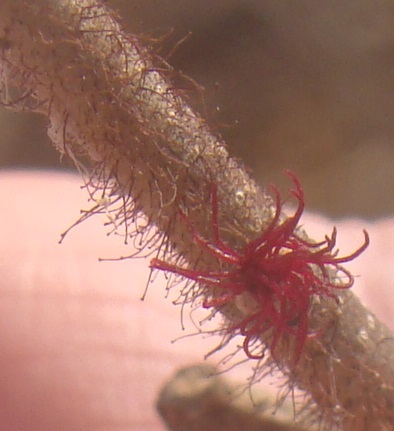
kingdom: Plantae
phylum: Tracheophyta
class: Magnoliopsida
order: Fagales
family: Betulaceae
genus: Corylus
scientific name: Corylus americana
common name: American hazel
